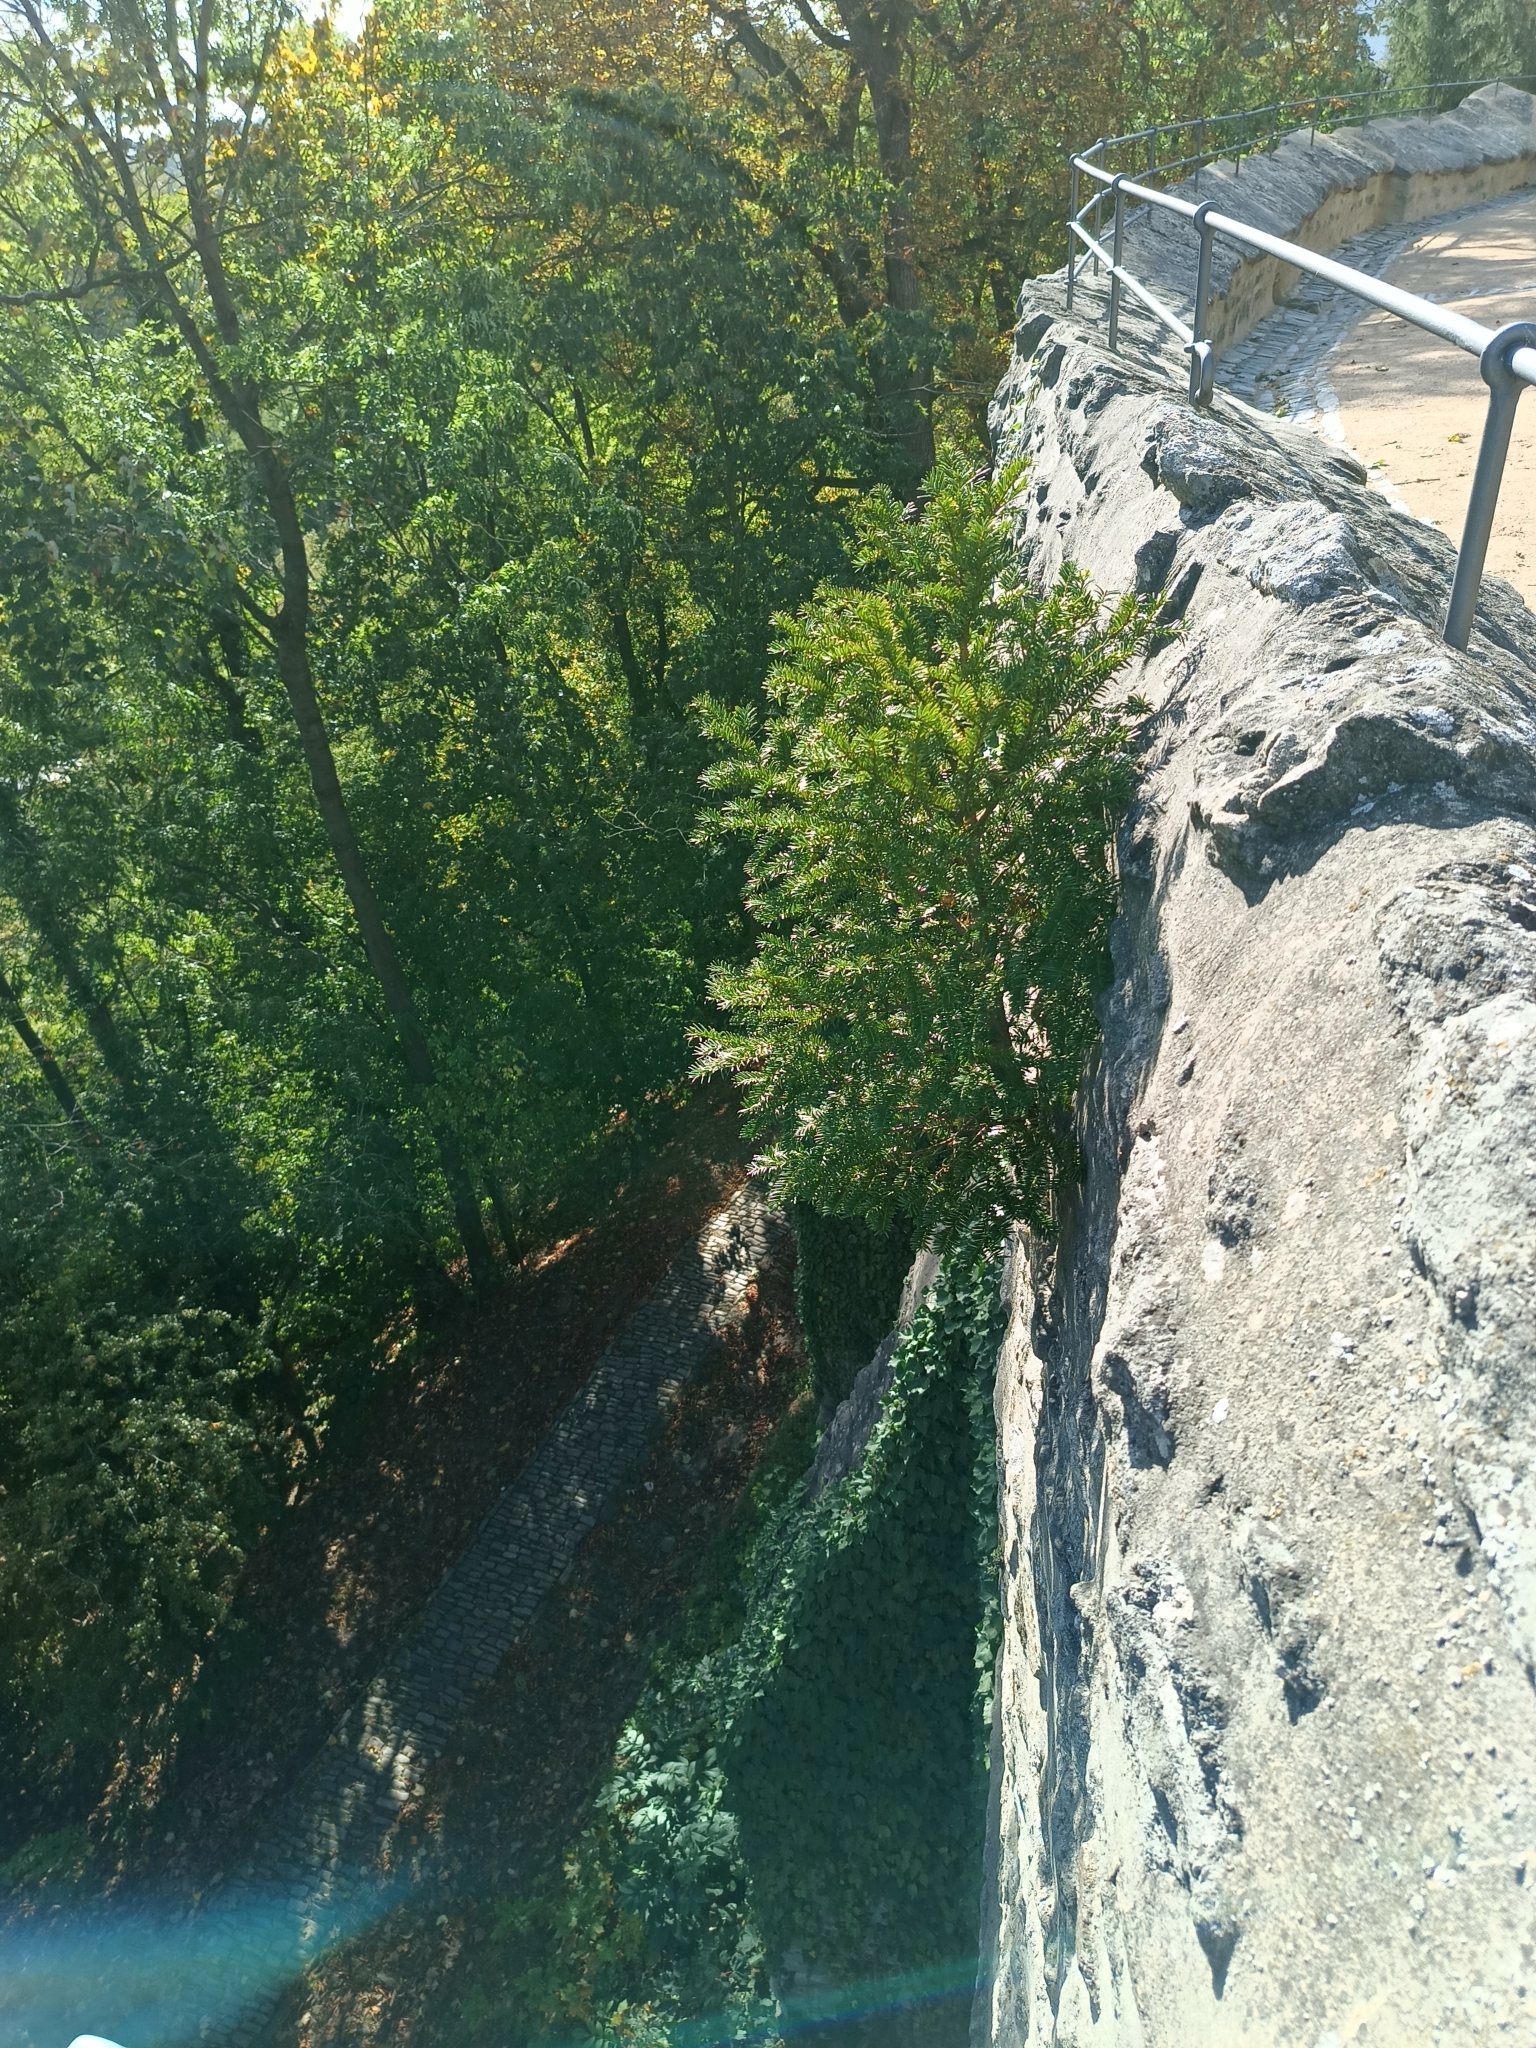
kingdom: Plantae
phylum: Tracheophyta
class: Pinopsida
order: Pinales
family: Taxaceae
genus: Taxus
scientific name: Taxus baccata
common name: Yew
